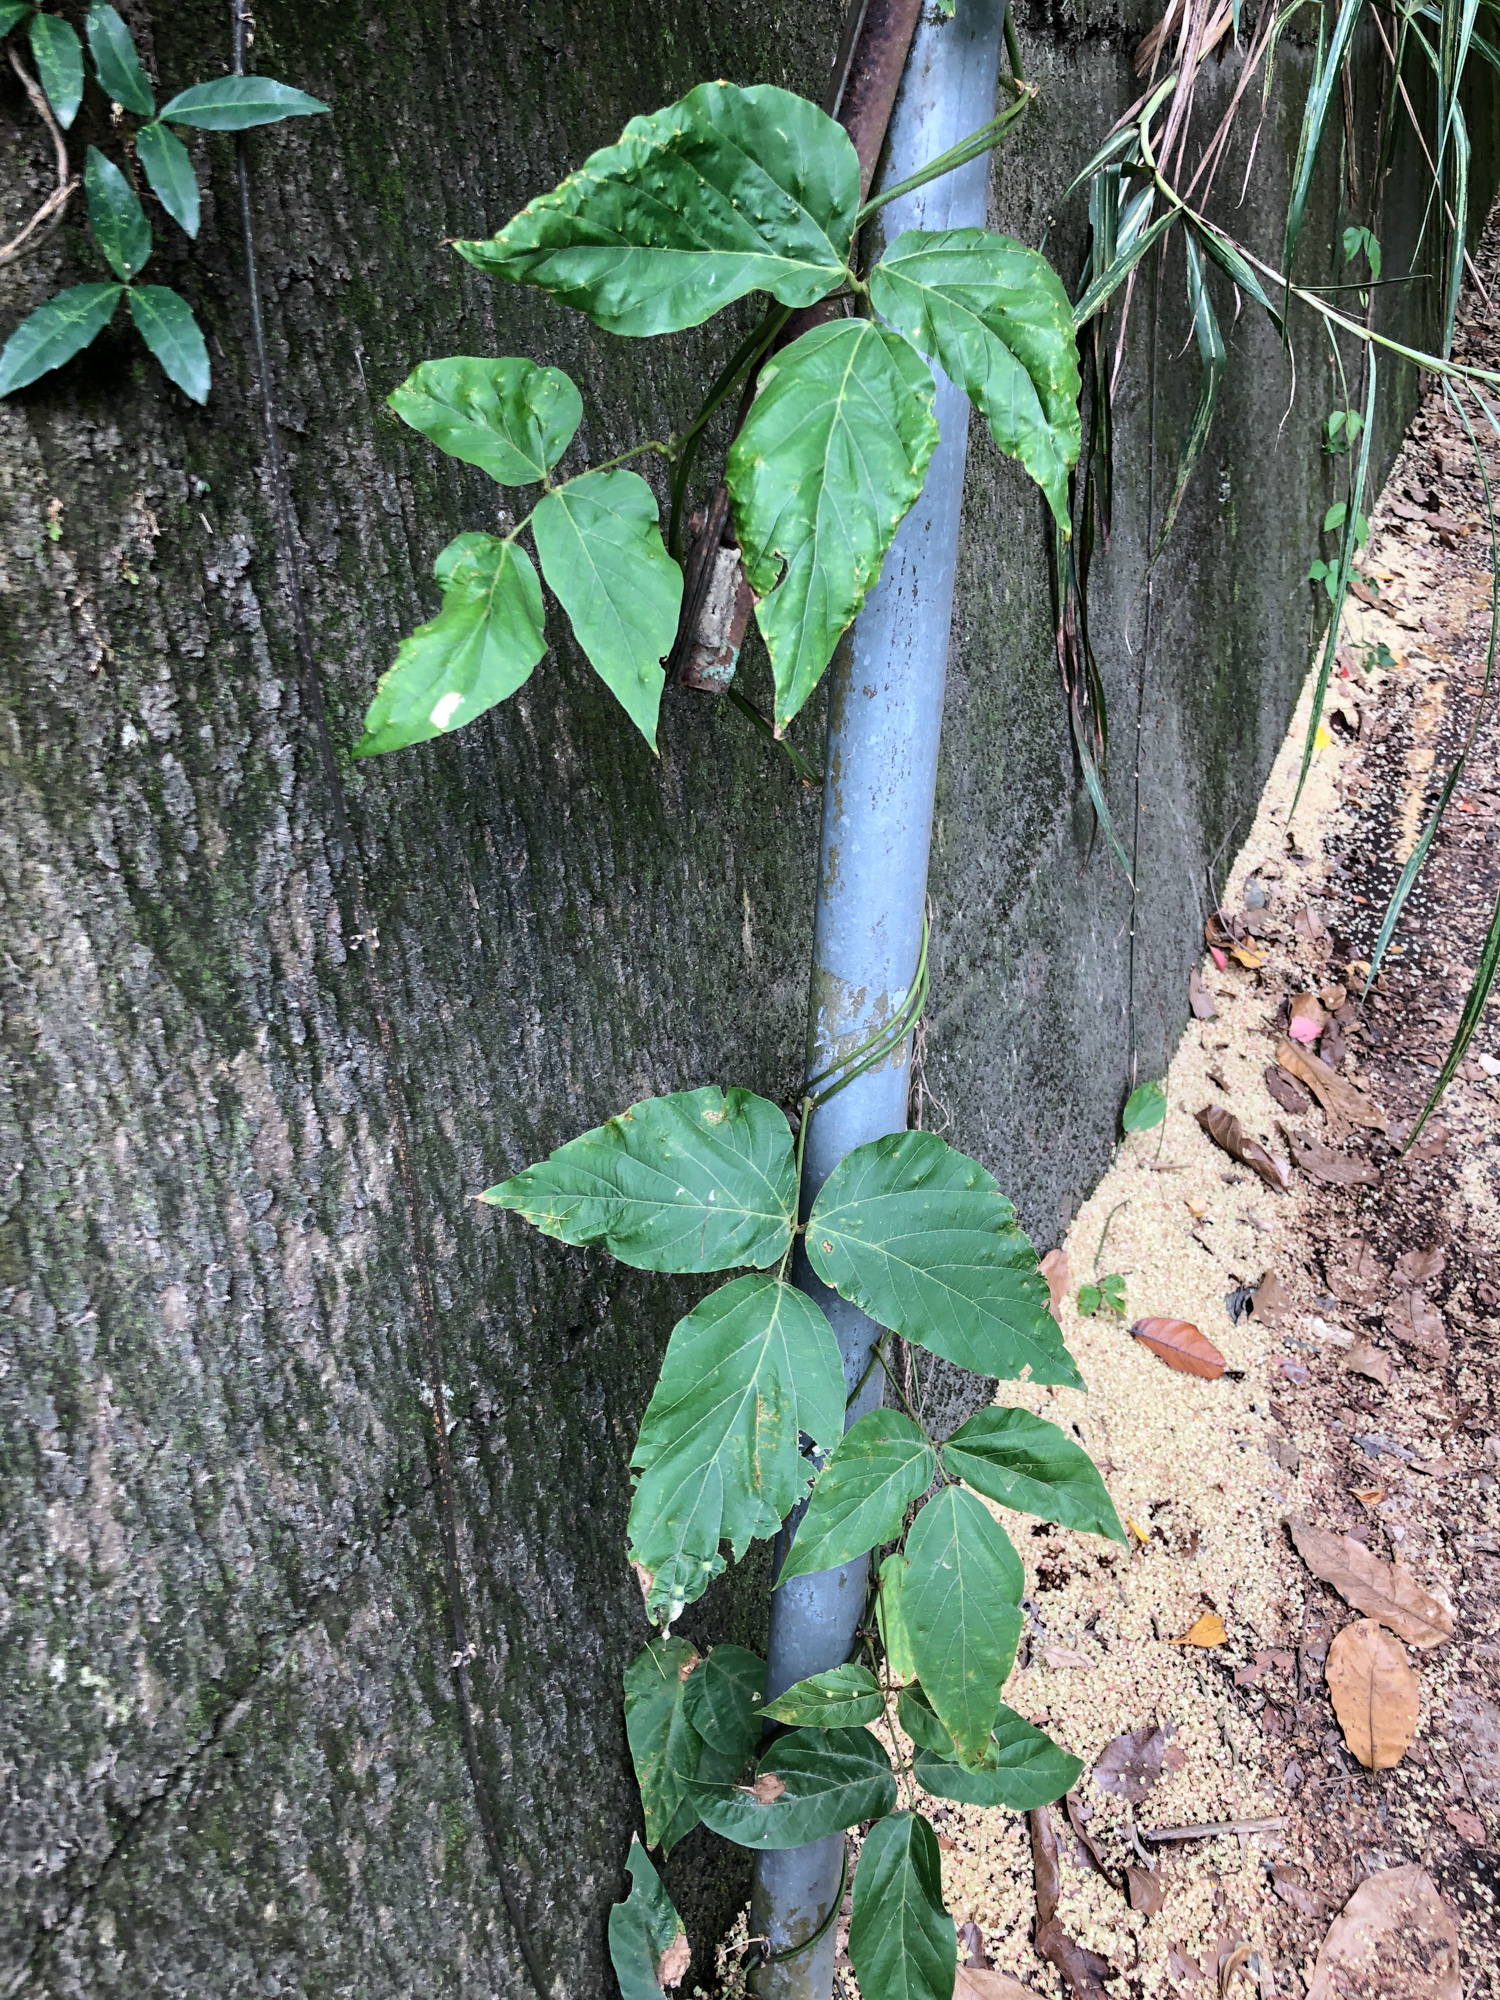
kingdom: Plantae
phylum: Tracheophyta
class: Magnoliopsida
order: Fabales
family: Fabaceae
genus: Pueraria
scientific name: Pueraria montana
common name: Kudzu
